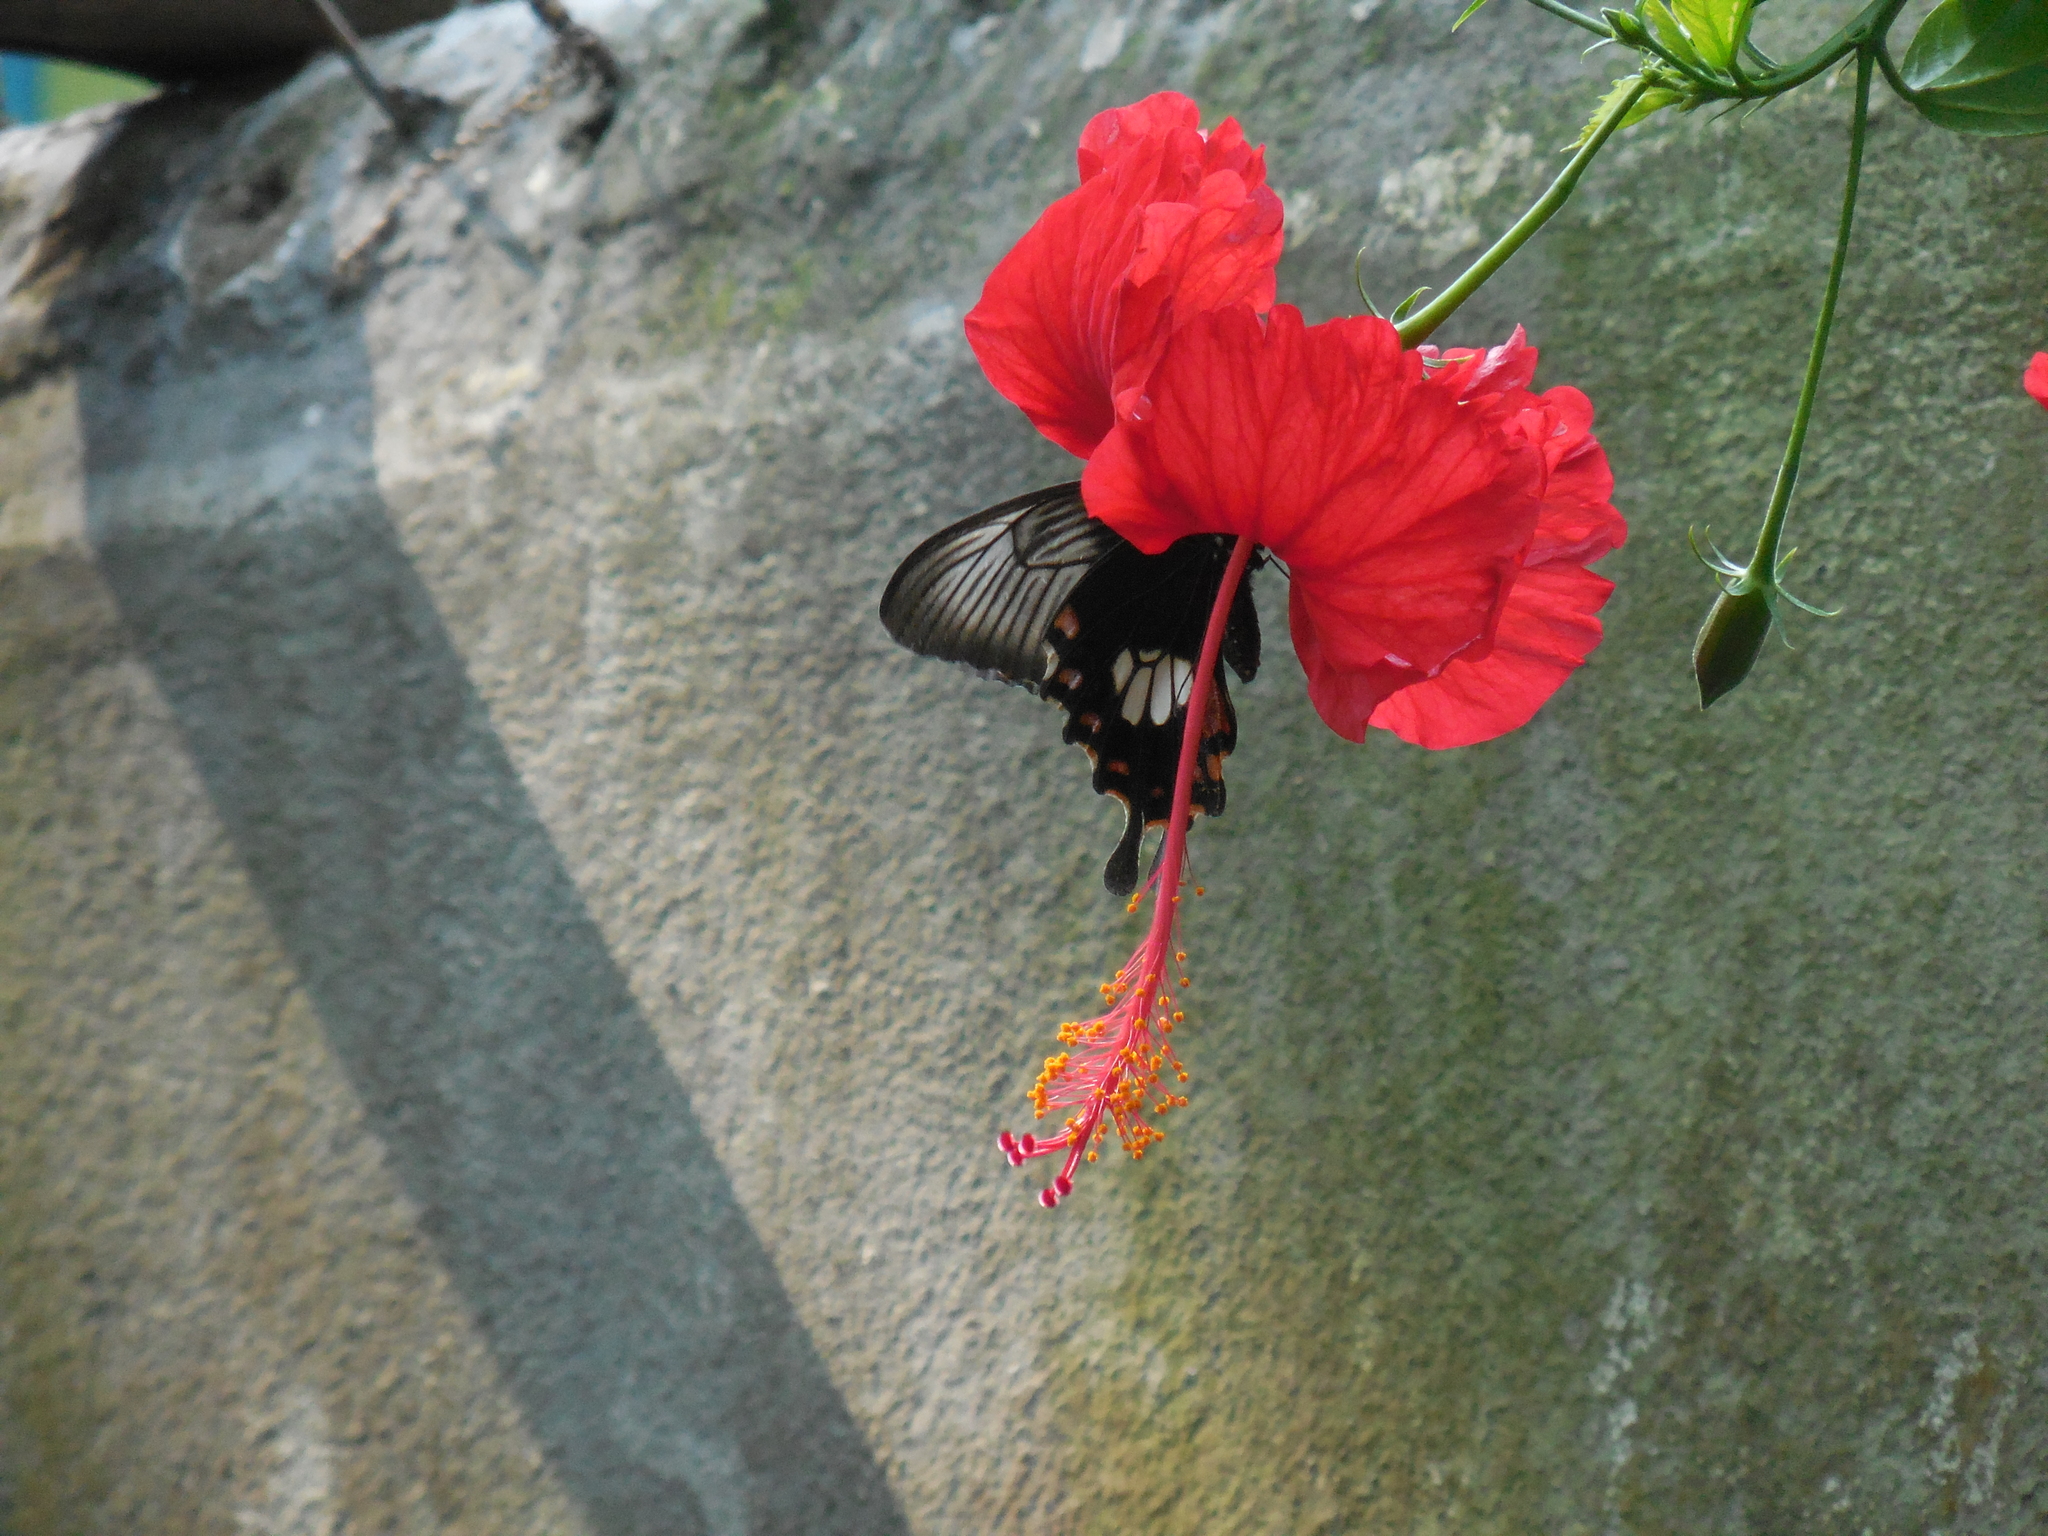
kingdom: Animalia
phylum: Arthropoda
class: Insecta
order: Lepidoptera
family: Papilionidae
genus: Papilio
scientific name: Papilio polytes
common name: Common mormon
